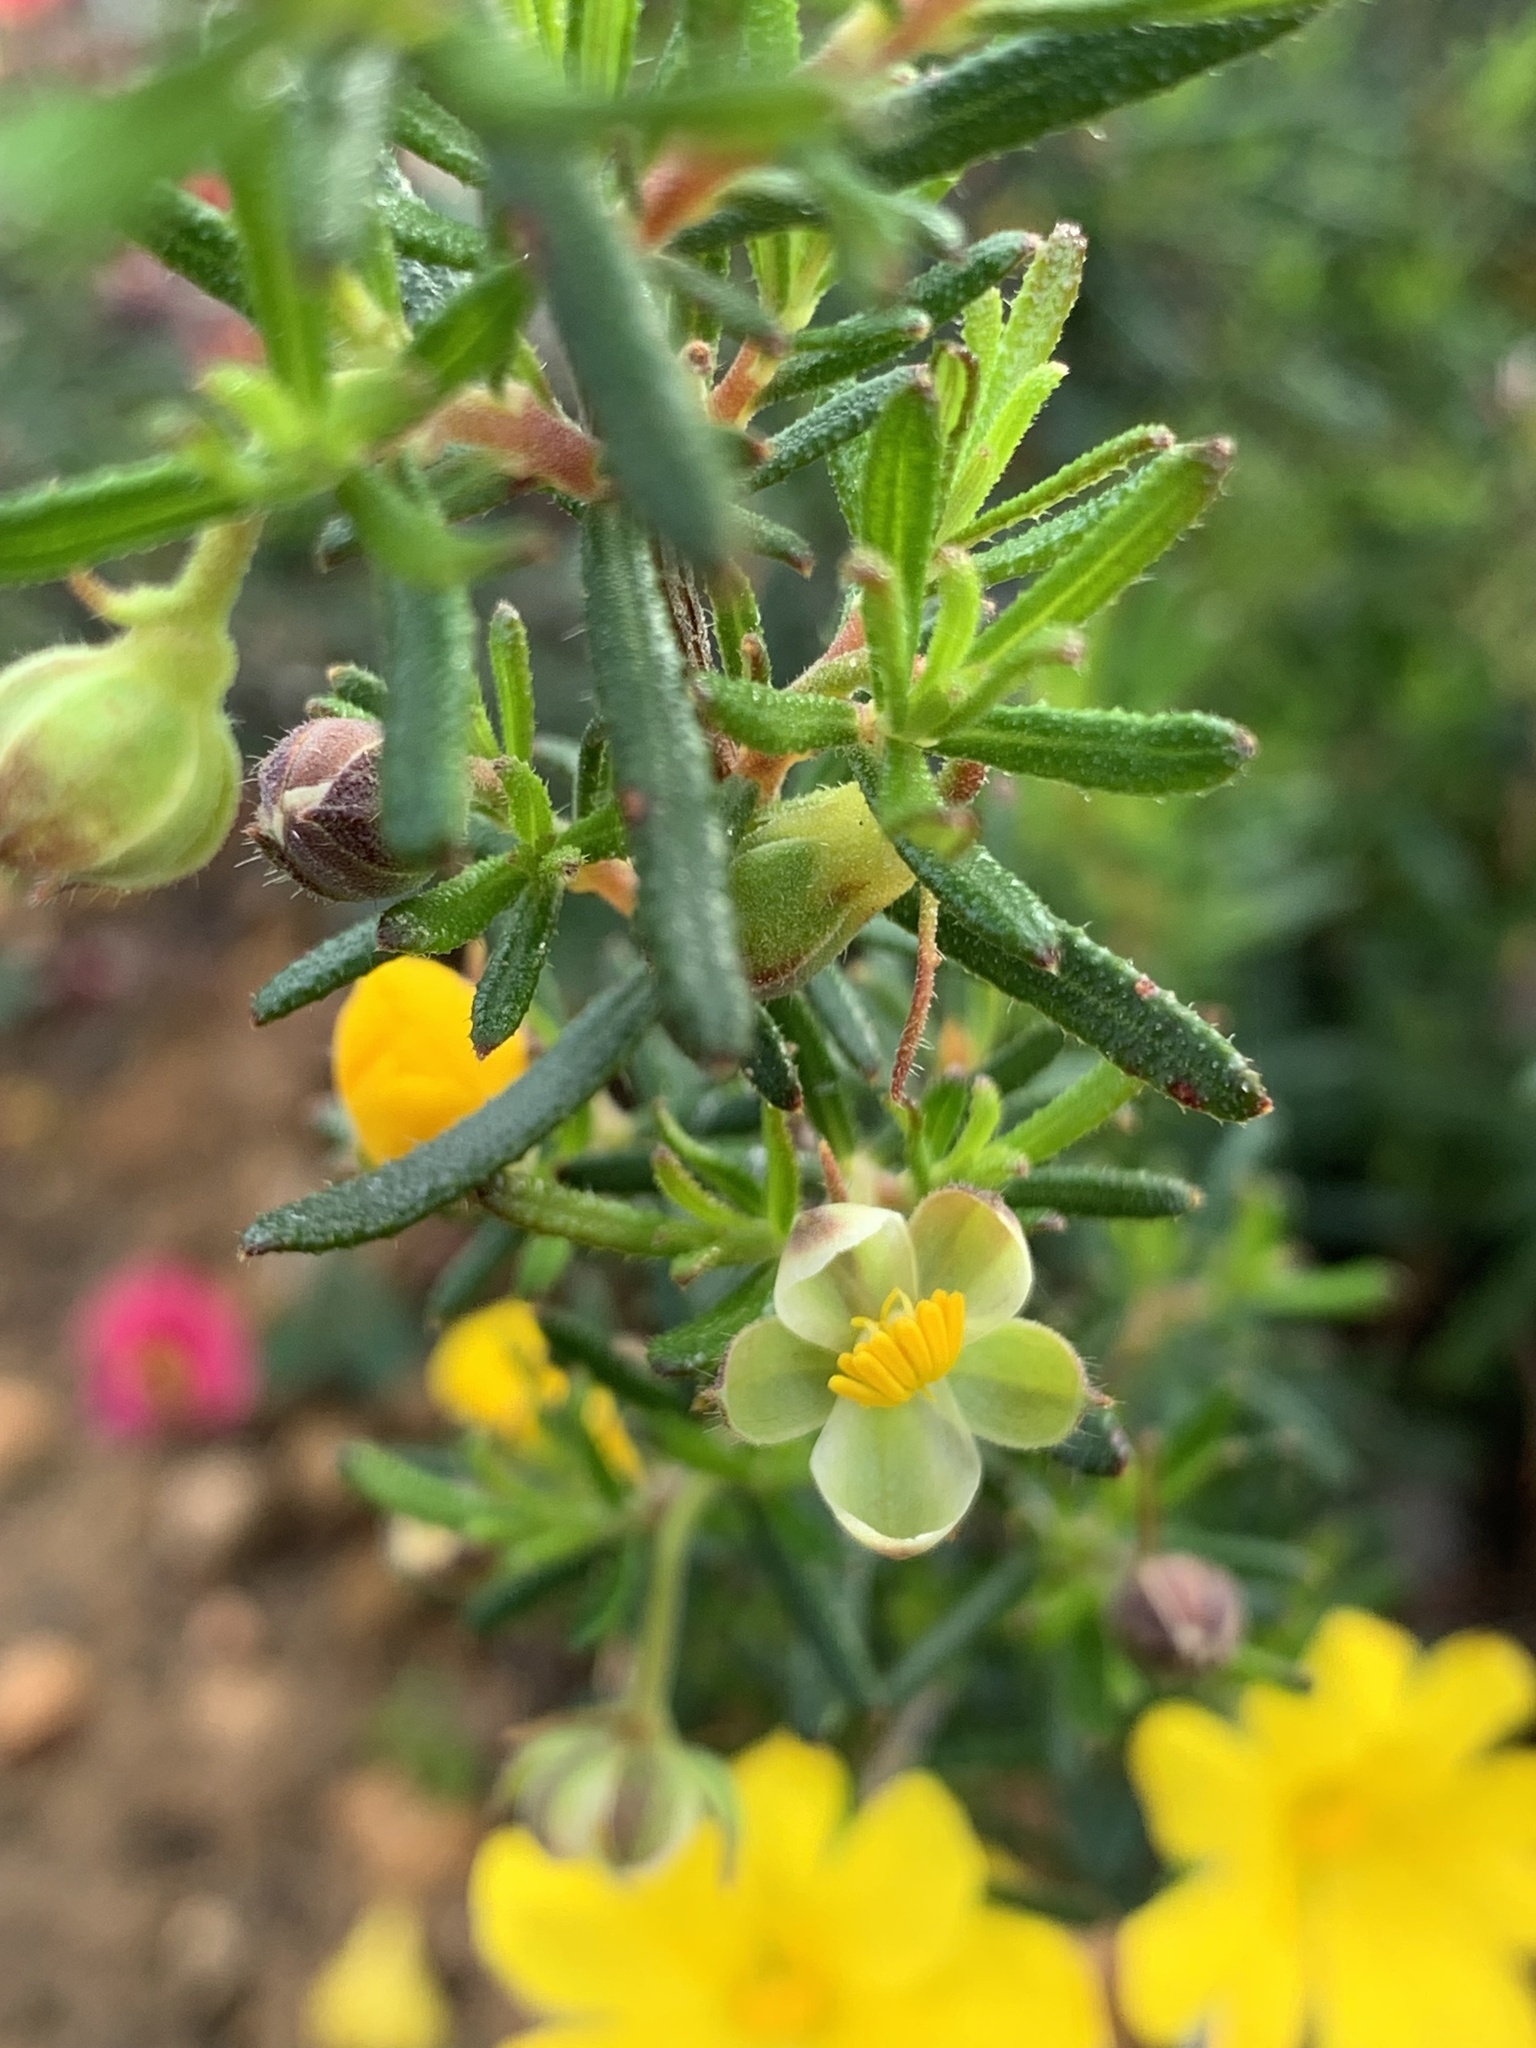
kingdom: Plantae
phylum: Tracheophyta
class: Magnoliopsida
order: Dilleniales
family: Dilleniaceae
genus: Hibbertia
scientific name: Hibbertia hypericoides
